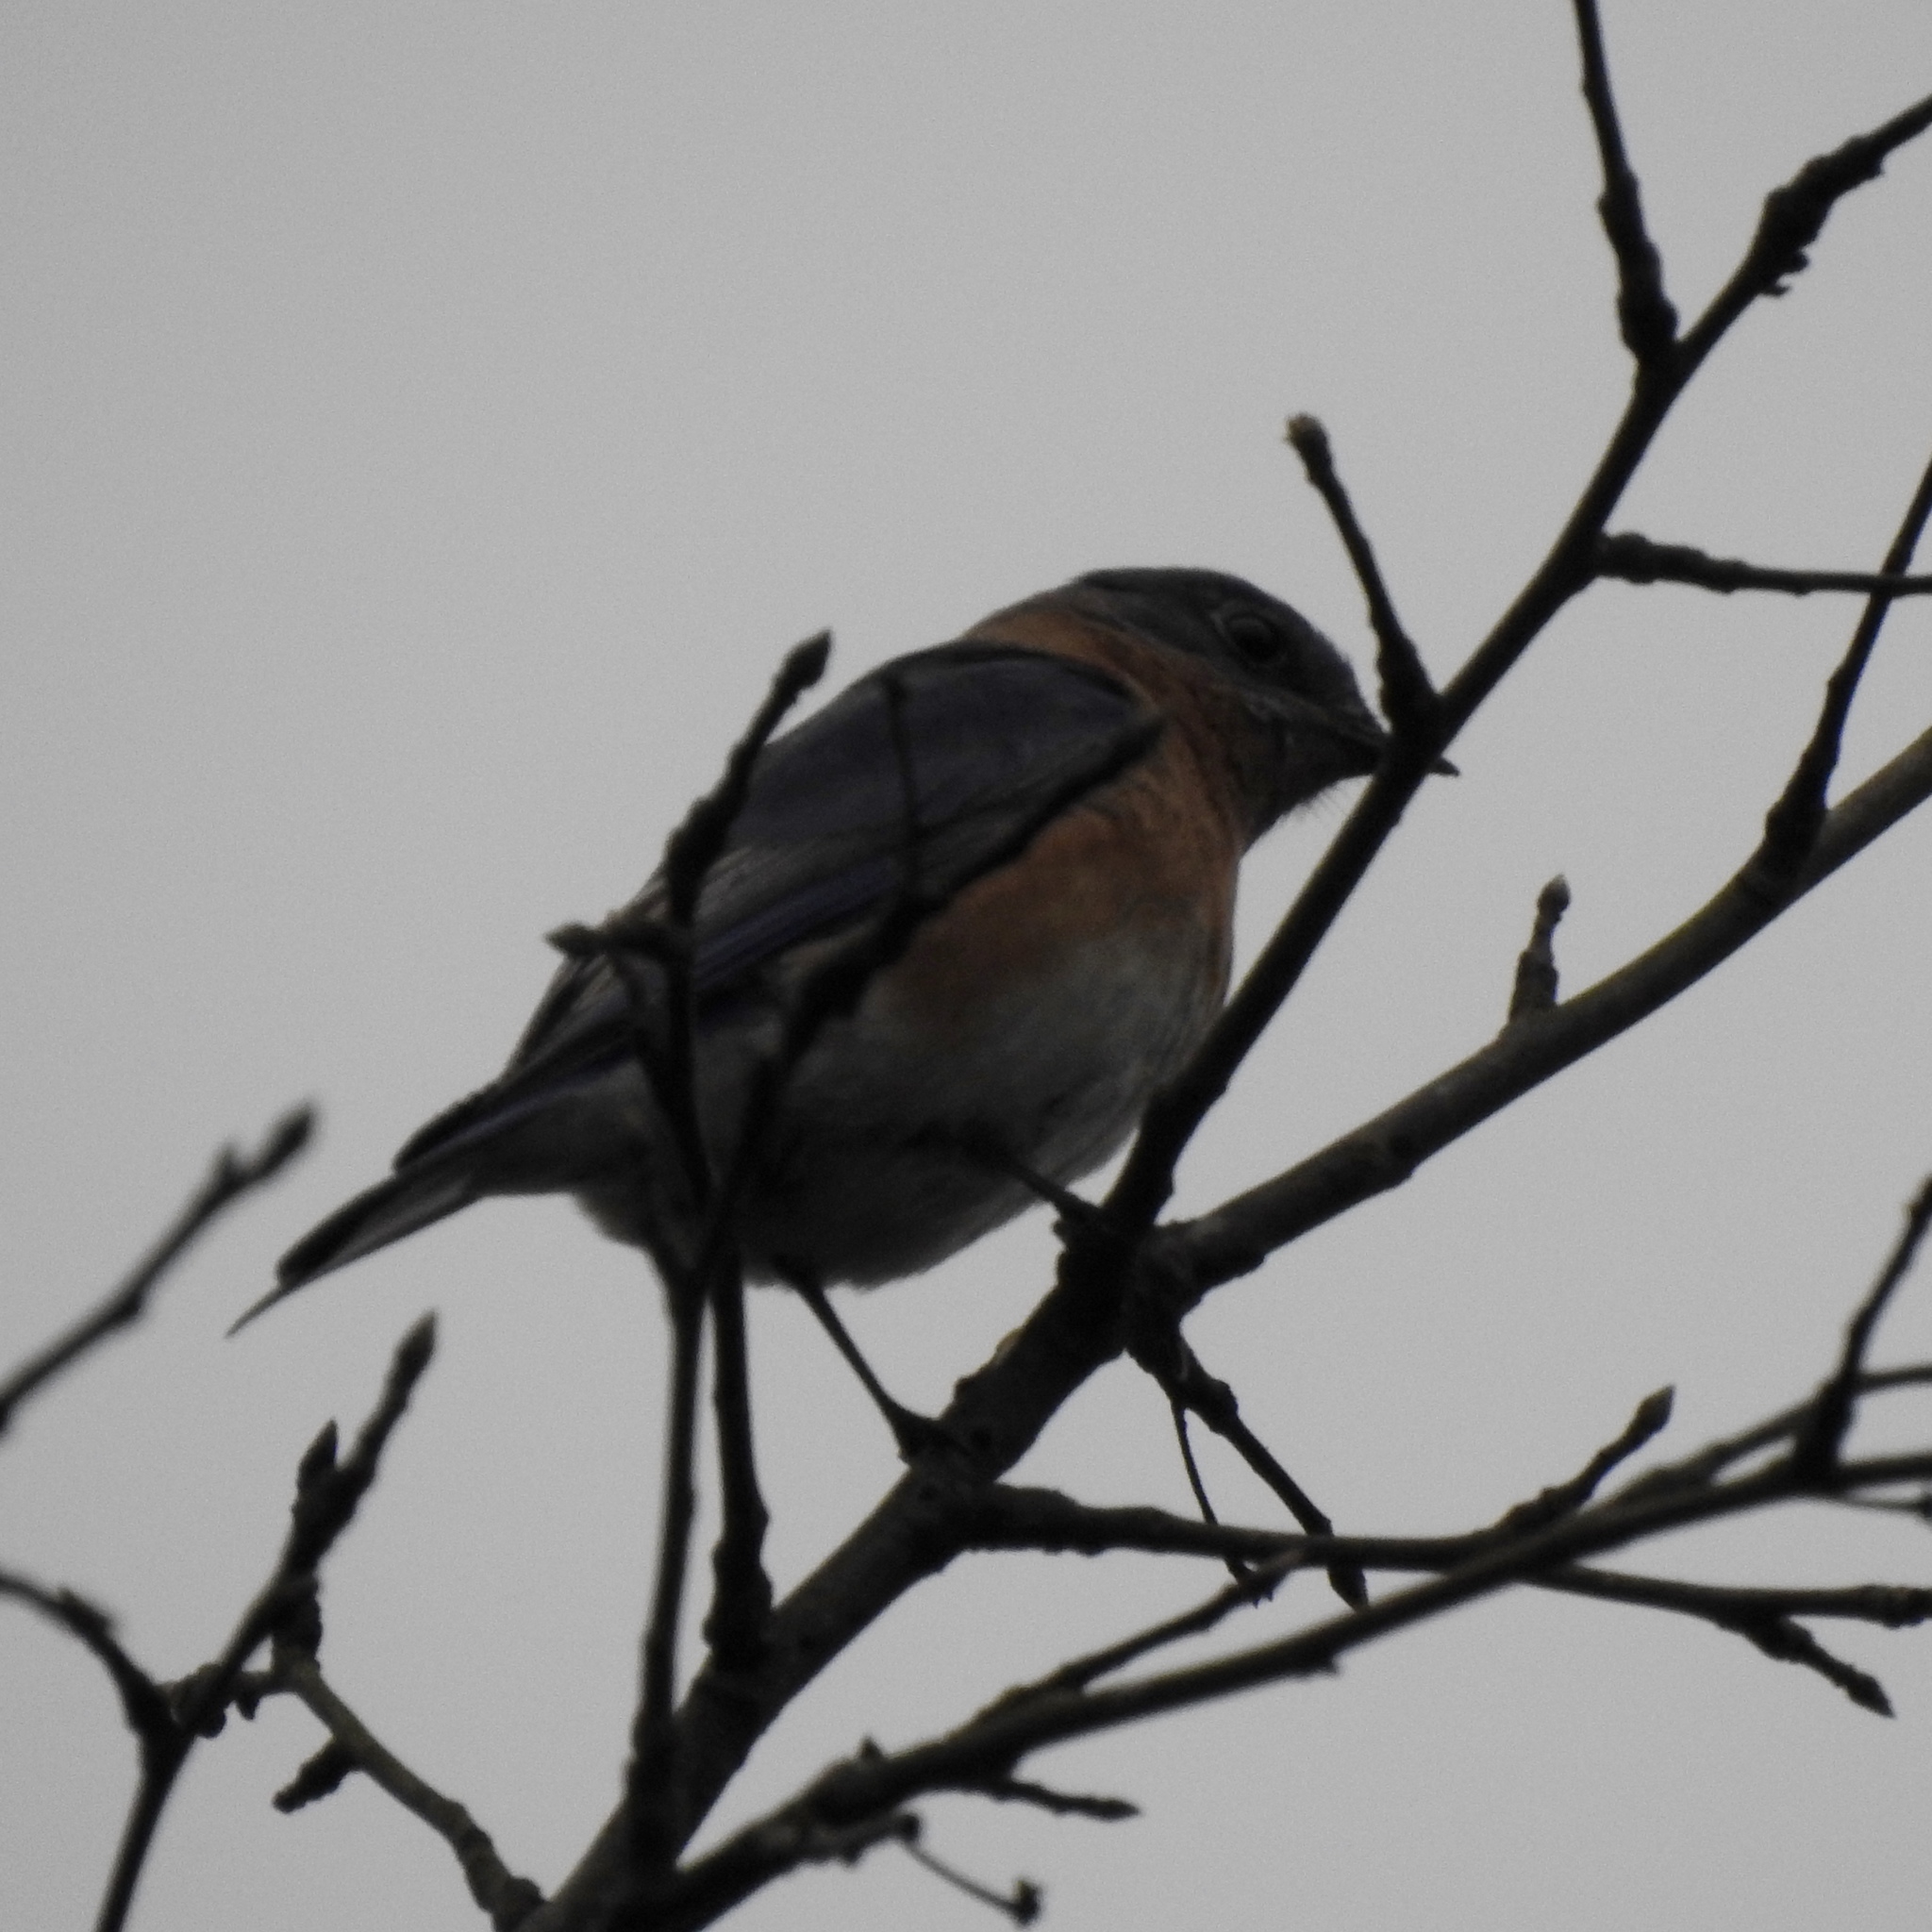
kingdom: Animalia
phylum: Chordata
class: Aves
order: Passeriformes
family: Turdidae
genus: Sialia
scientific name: Sialia sialis
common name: Eastern bluebird
